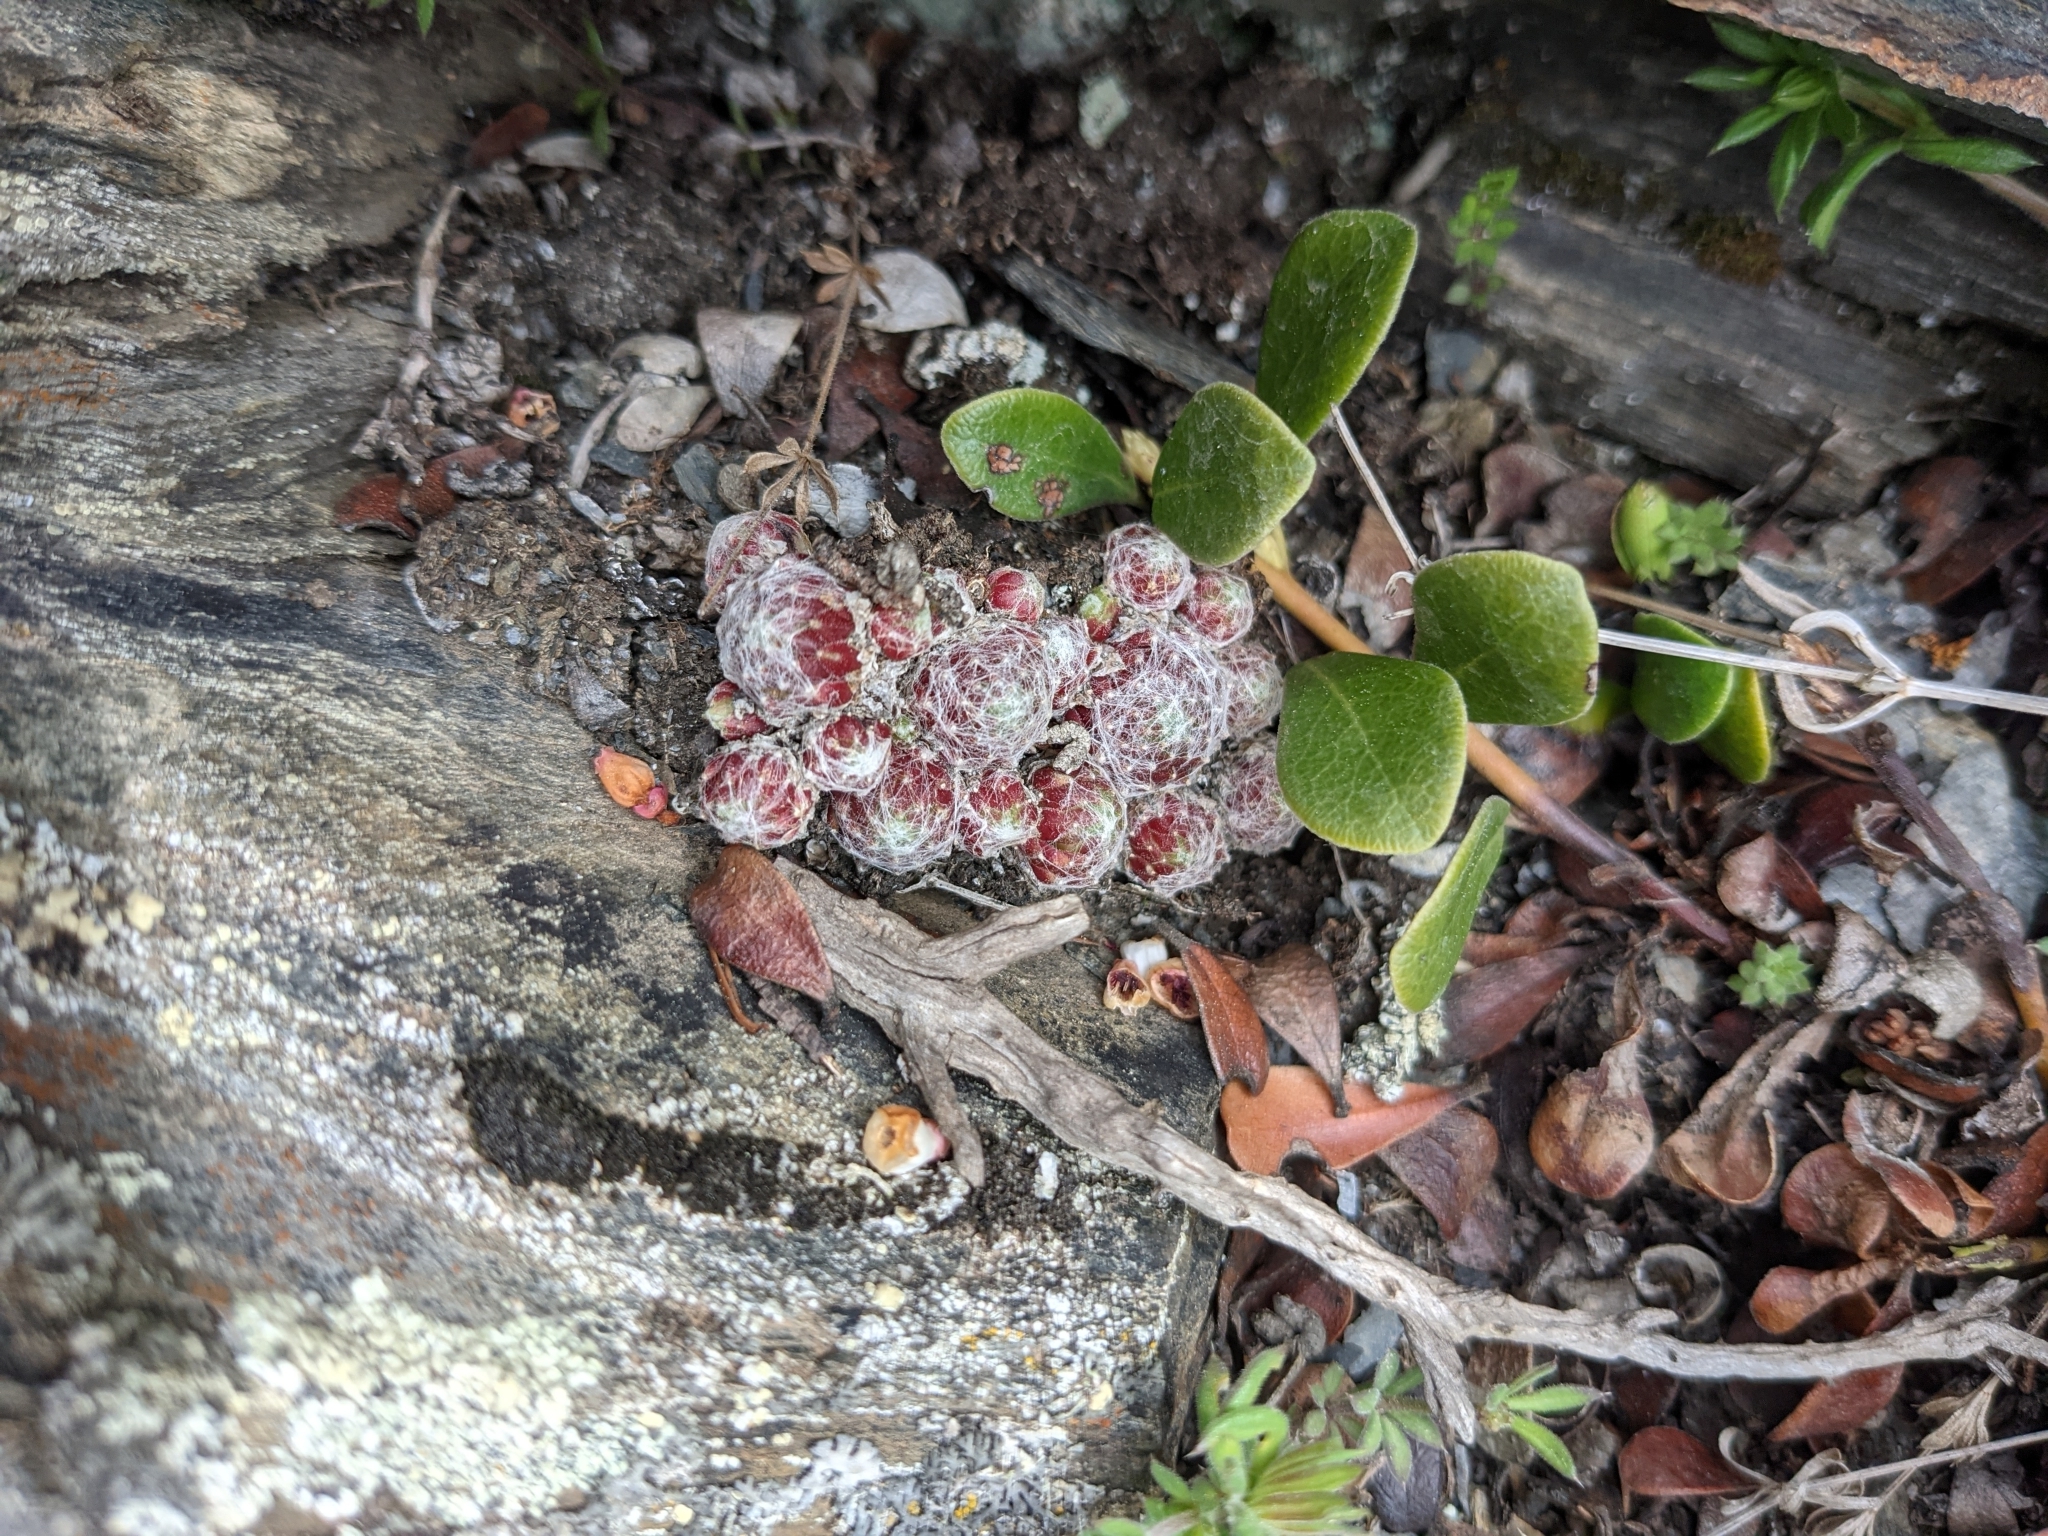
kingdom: Plantae
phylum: Tracheophyta
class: Magnoliopsida
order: Saxifragales
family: Crassulaceae
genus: Sempervivum
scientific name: Sempervivum arachnoideum
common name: Cobweb house-leek
